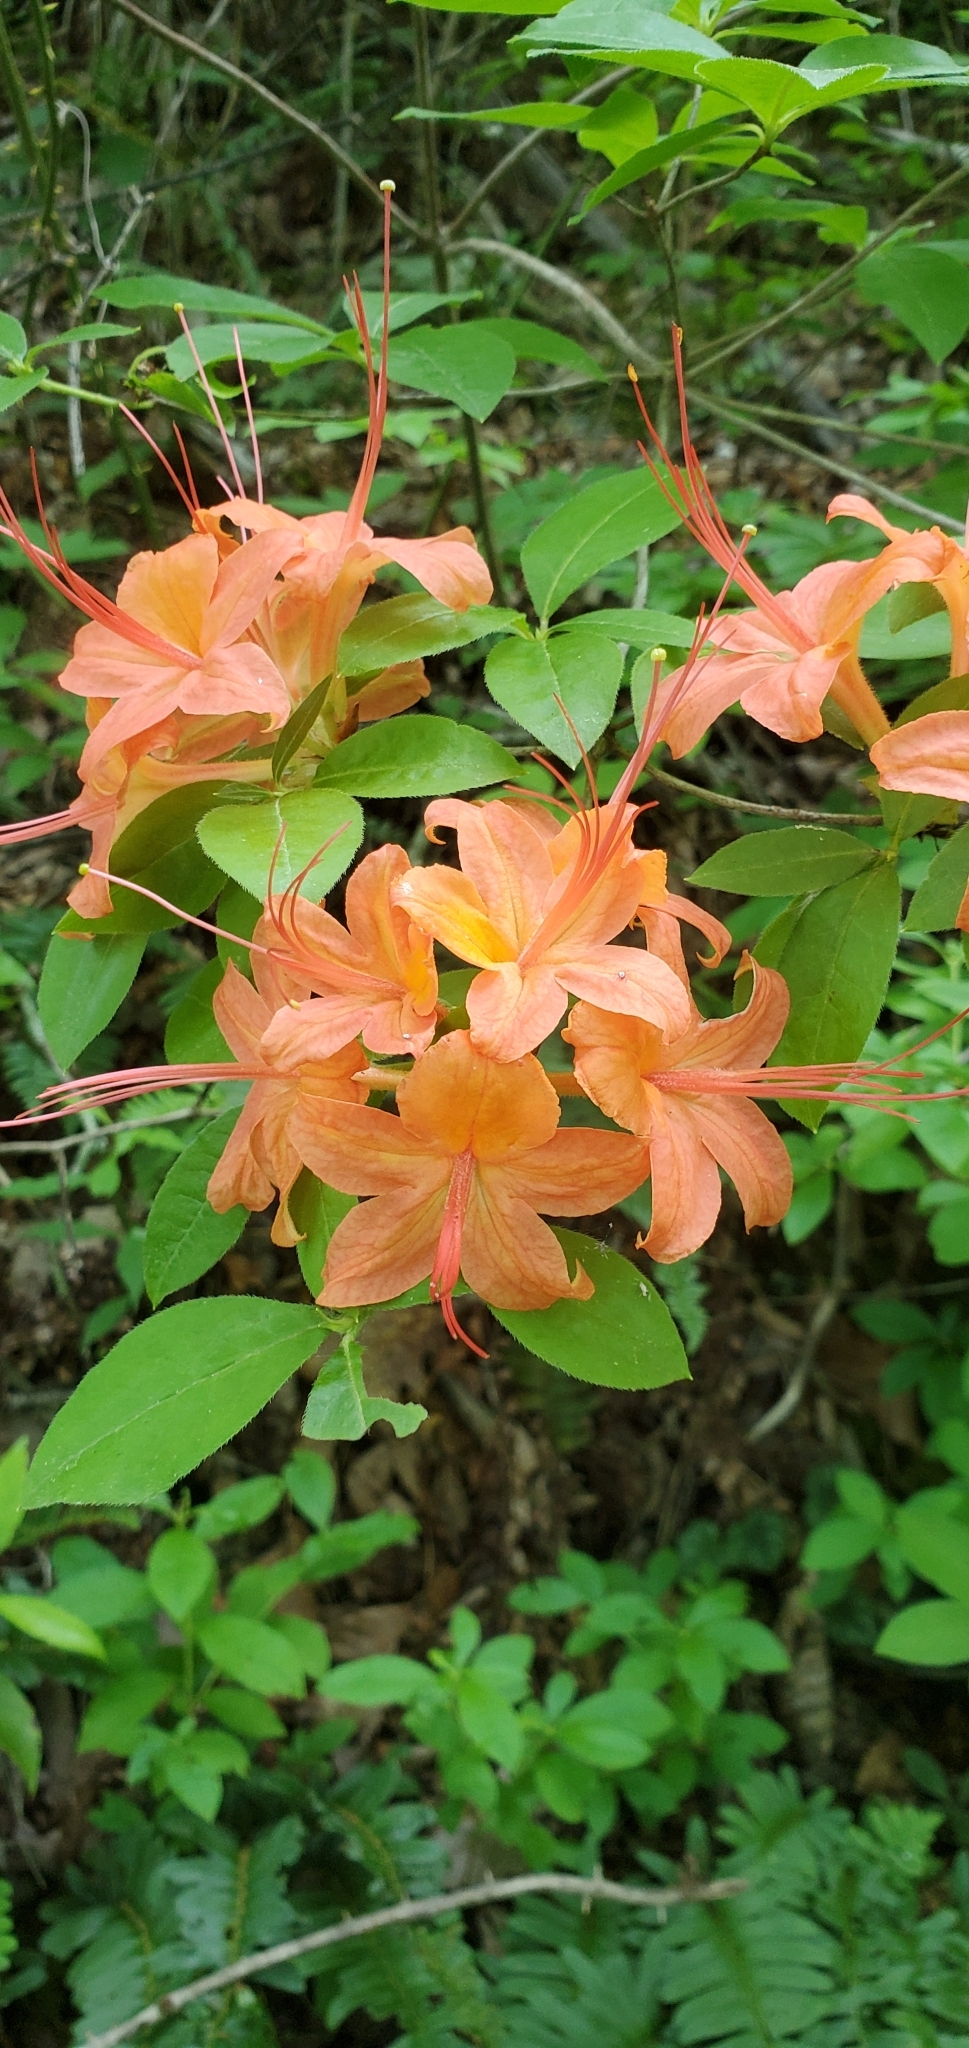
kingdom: Plantae
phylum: Tracheophyta
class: Magnoliopsida
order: Ericales
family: Ericaceae
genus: Rhododendron
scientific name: Rhododendron calendulaceum
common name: Flame azalea
